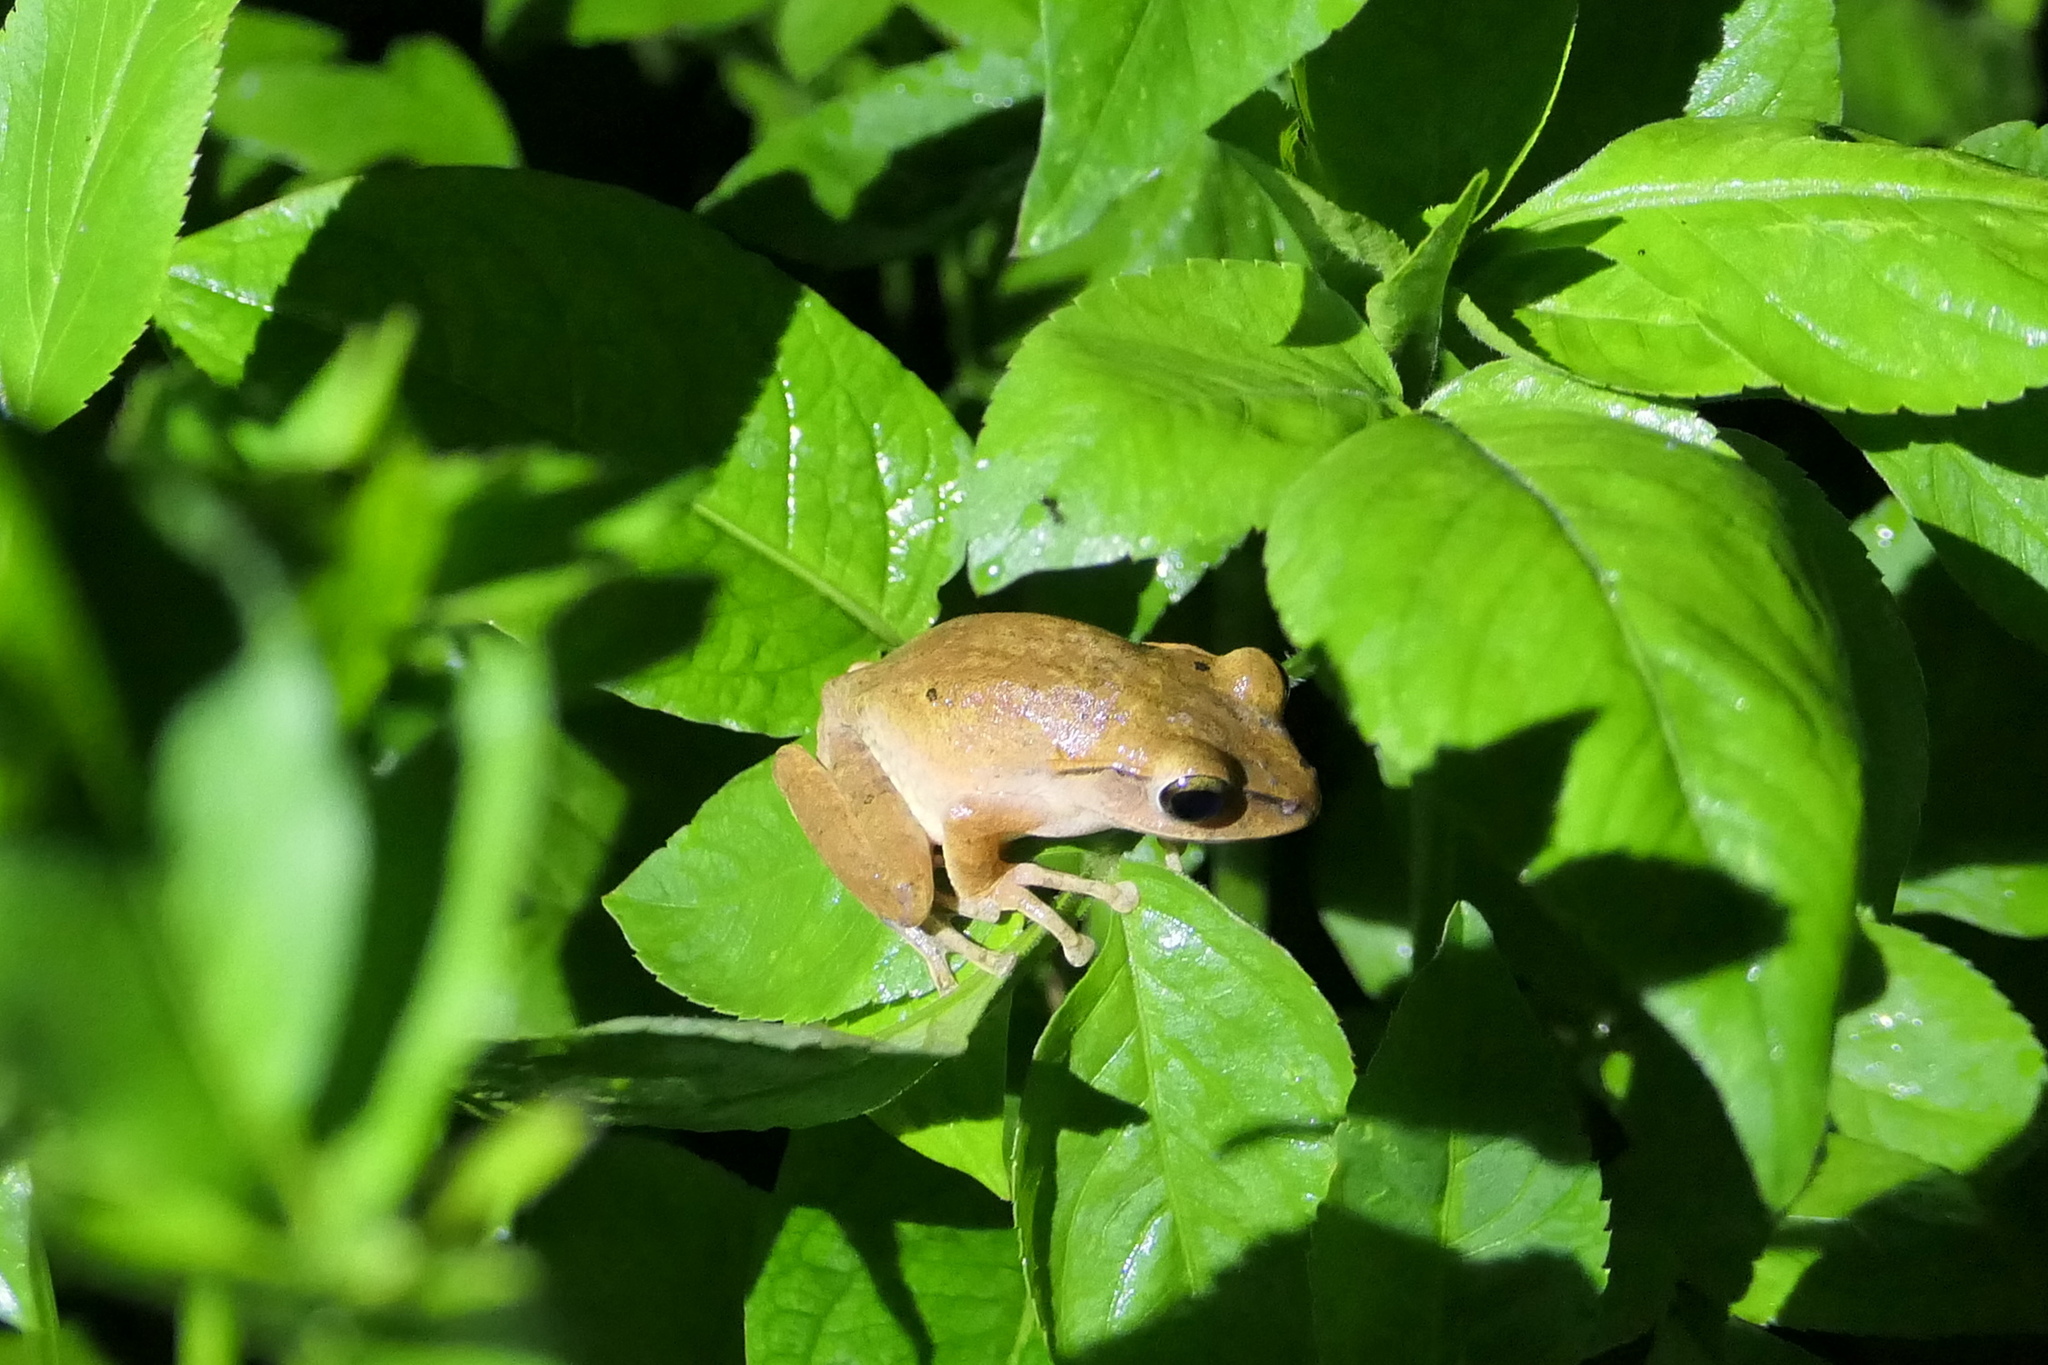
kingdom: Animalia
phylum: Chordata
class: Amphibia
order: Anura
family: Rhacophoridae
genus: Polypedates
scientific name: Polypedates braueri
